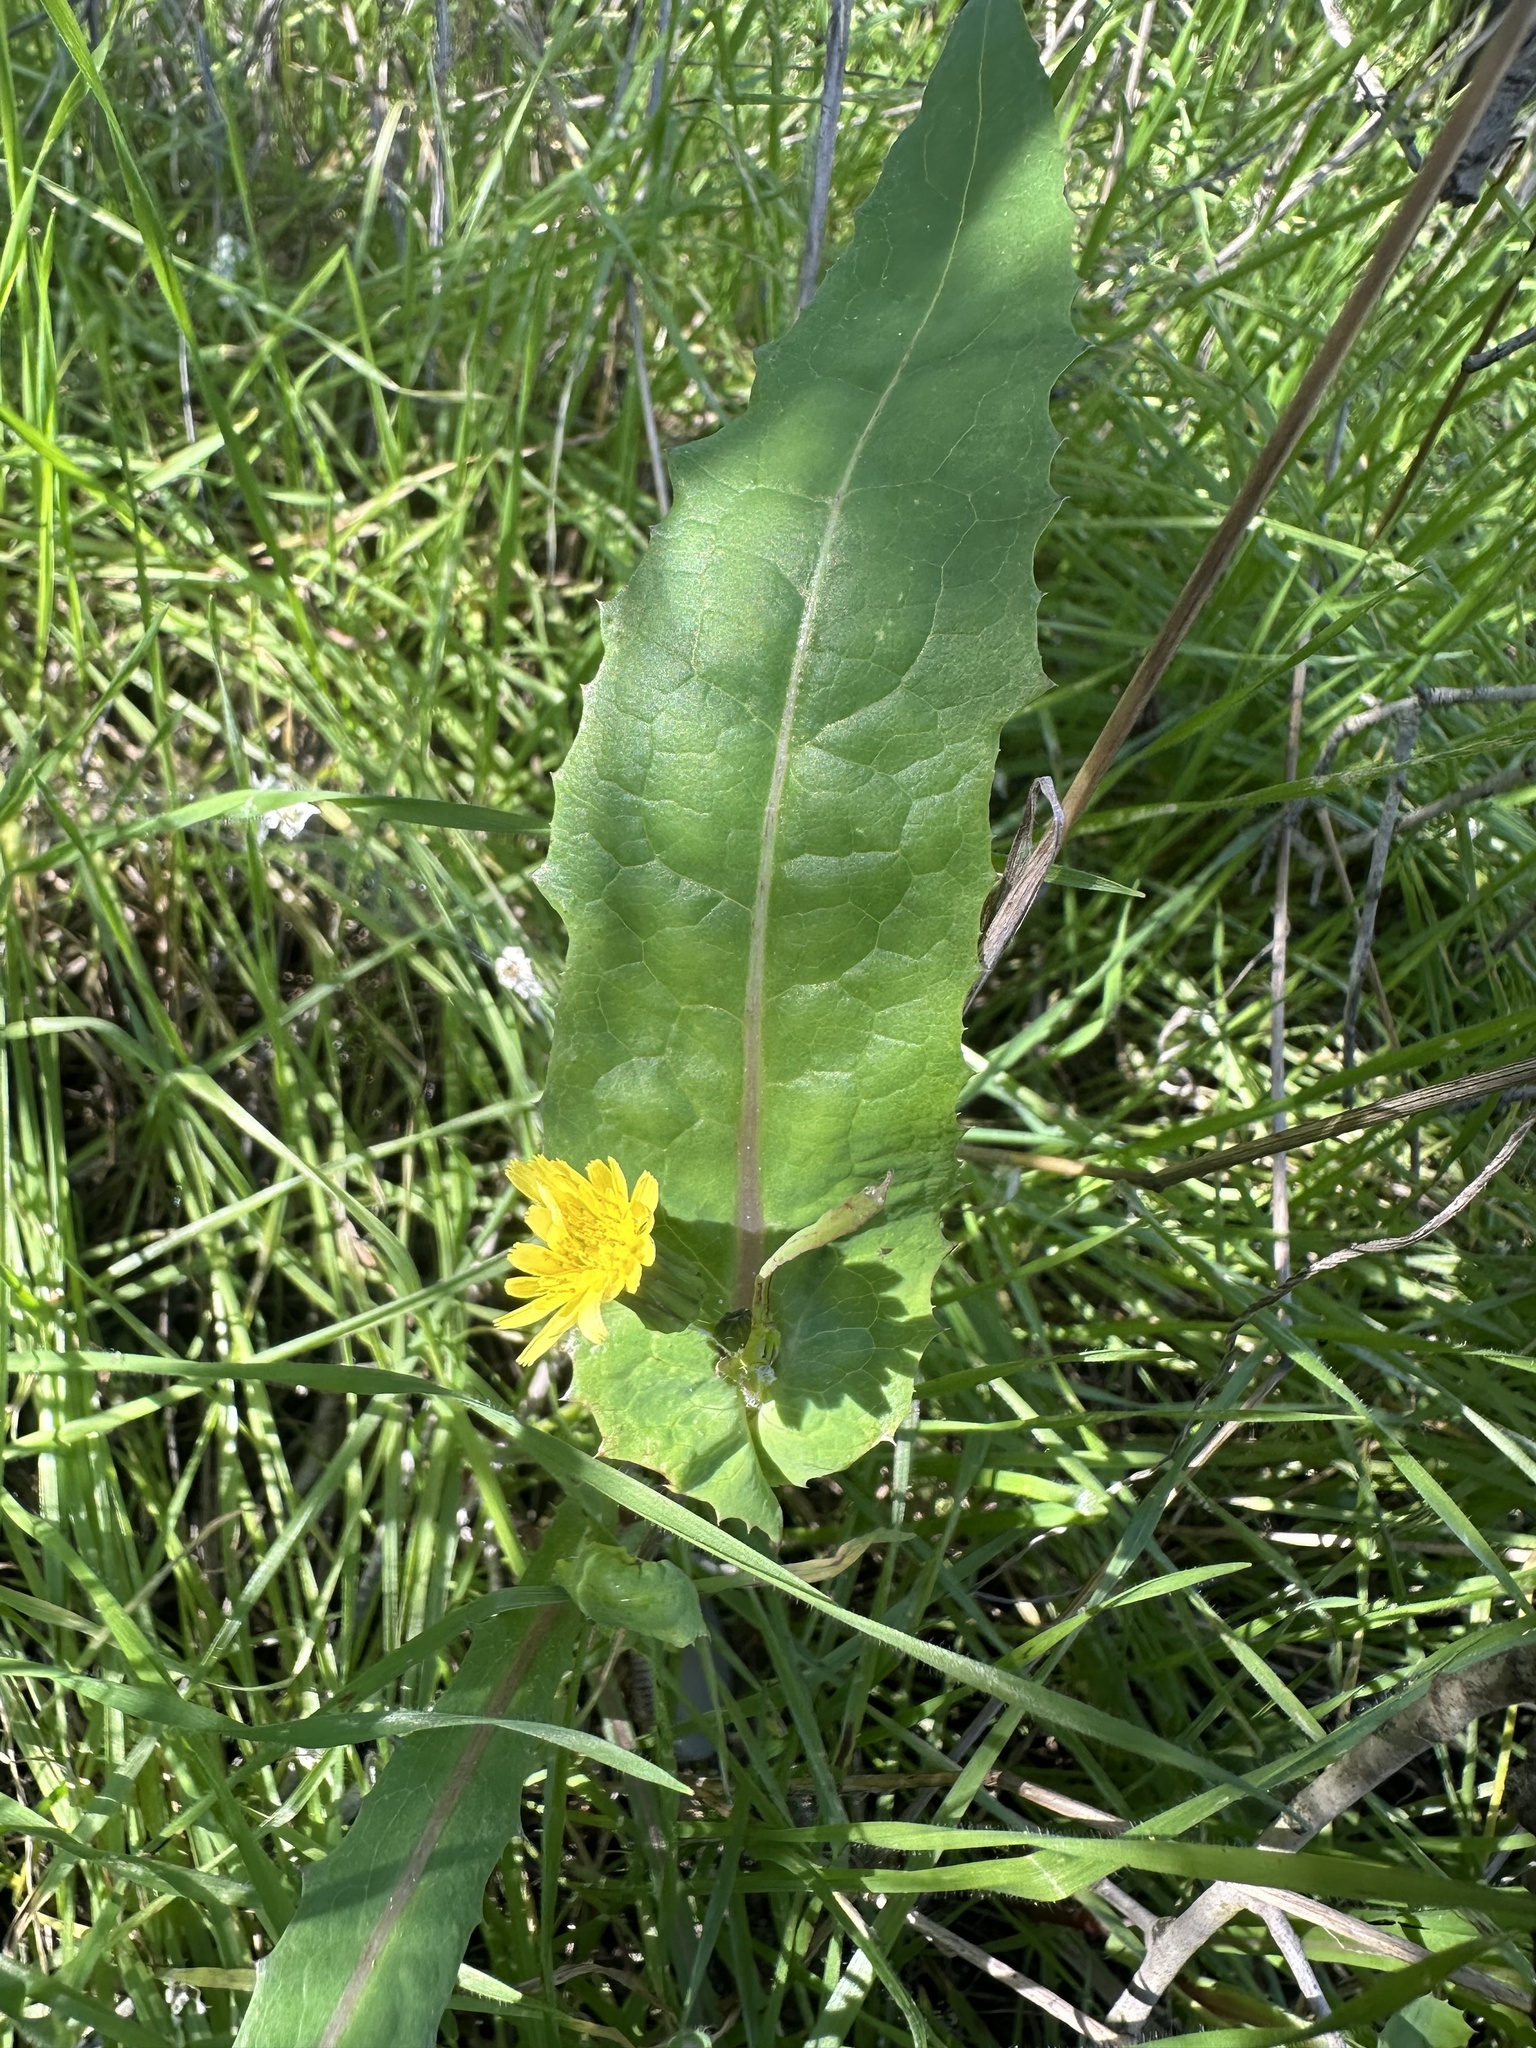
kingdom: Plantae
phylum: Tracheophyta
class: Magnoliopsida
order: Asterales
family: Asteraceae
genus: Sonchus
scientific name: Sonchus oleraceus
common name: Common sowthistle
